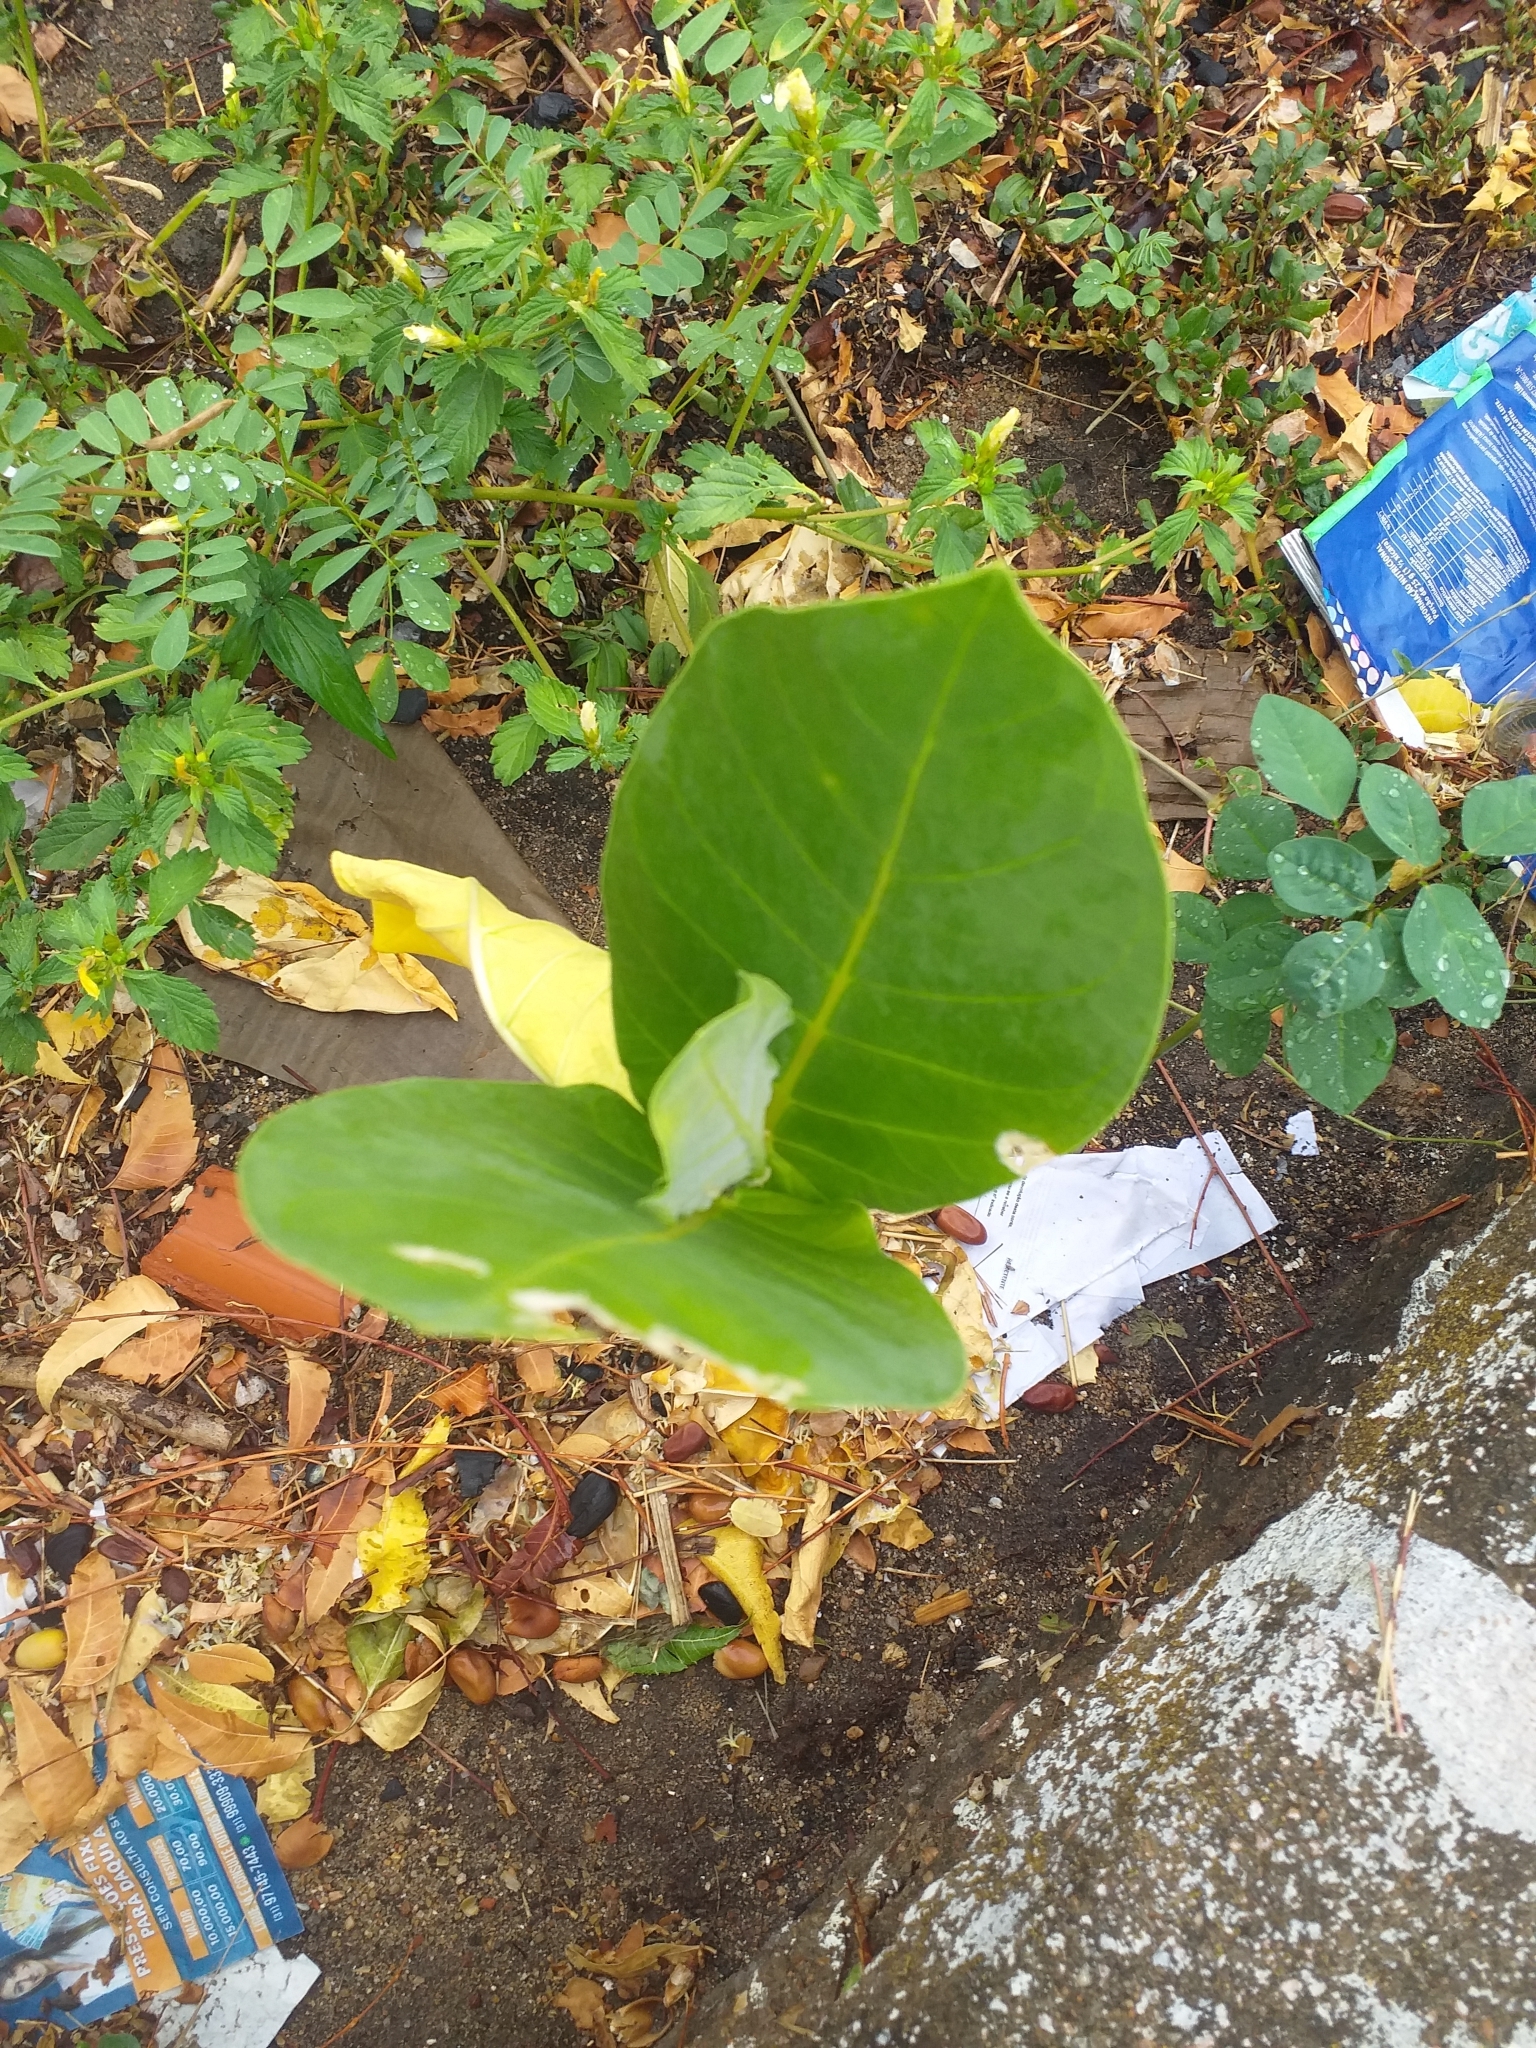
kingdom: Plantae
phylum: Tracheophyta
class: Magnoliopsida
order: Gentianales
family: Apocynaceae
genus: Calotropis
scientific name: Calotropis procera
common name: Roostertree
